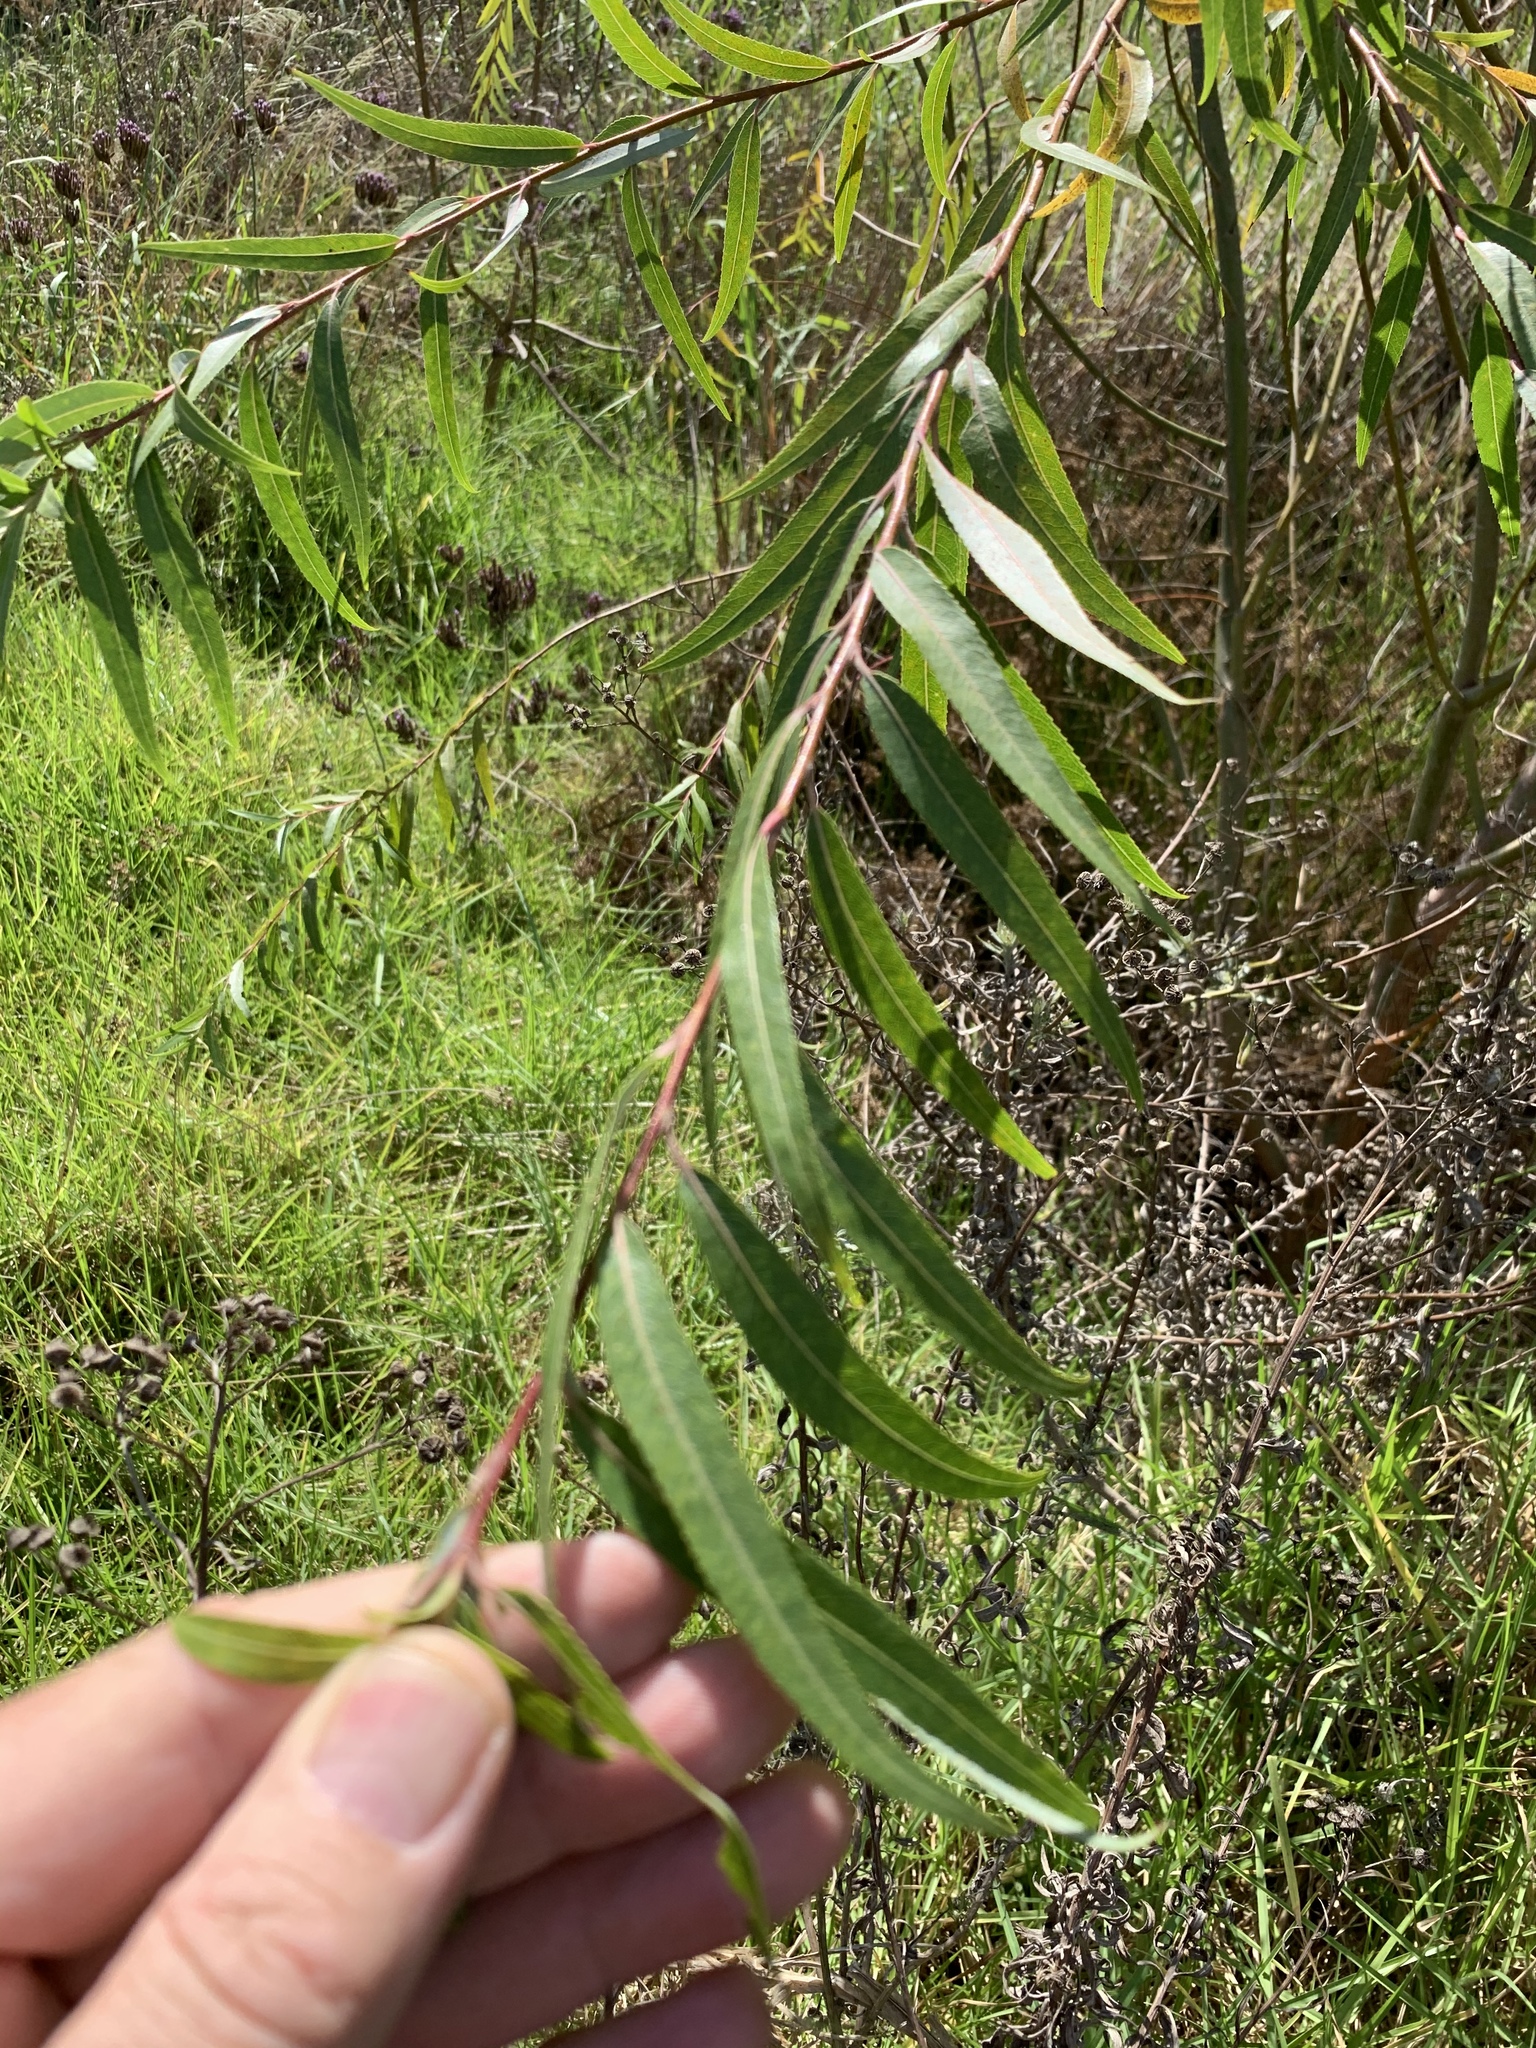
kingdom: Plantae
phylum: Tracheophyta
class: Magnoliopsida
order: Malpighiales
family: Salicaceae
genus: Salix
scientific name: Salix babylonica
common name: Weeping willow
